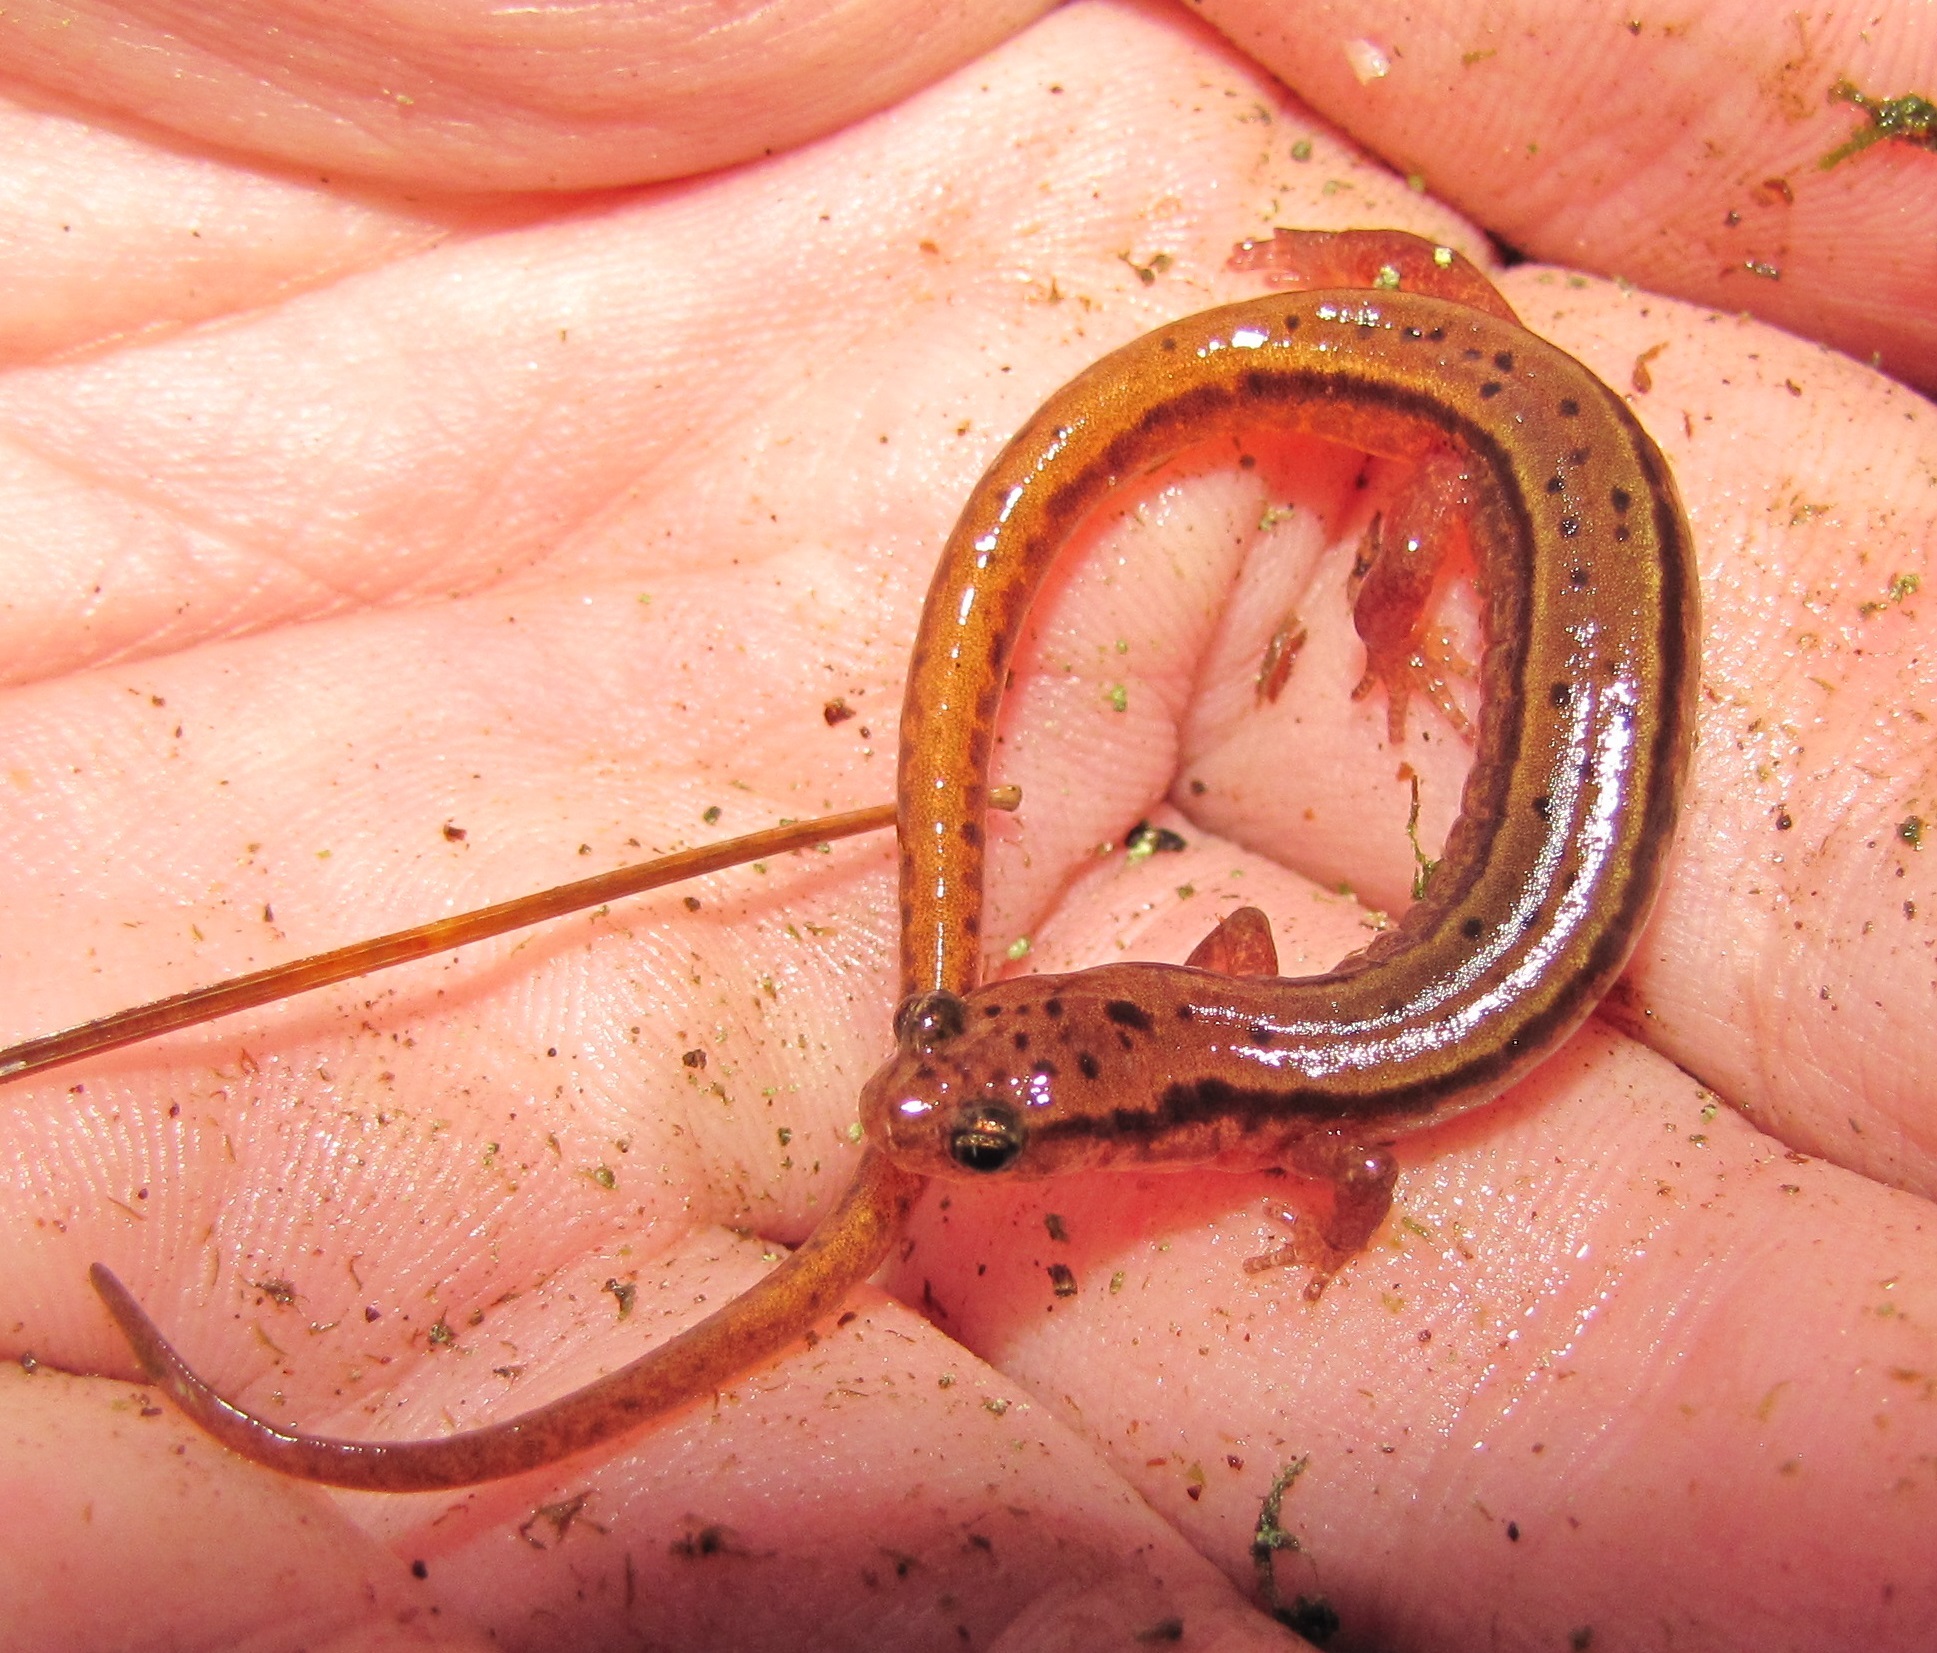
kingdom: Animalia
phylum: Chordata
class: Amphibia
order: Caudata
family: Plethodontidae
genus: Eurycea
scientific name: Eurycea wilderae
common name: Blue ridge two-lined salamander
